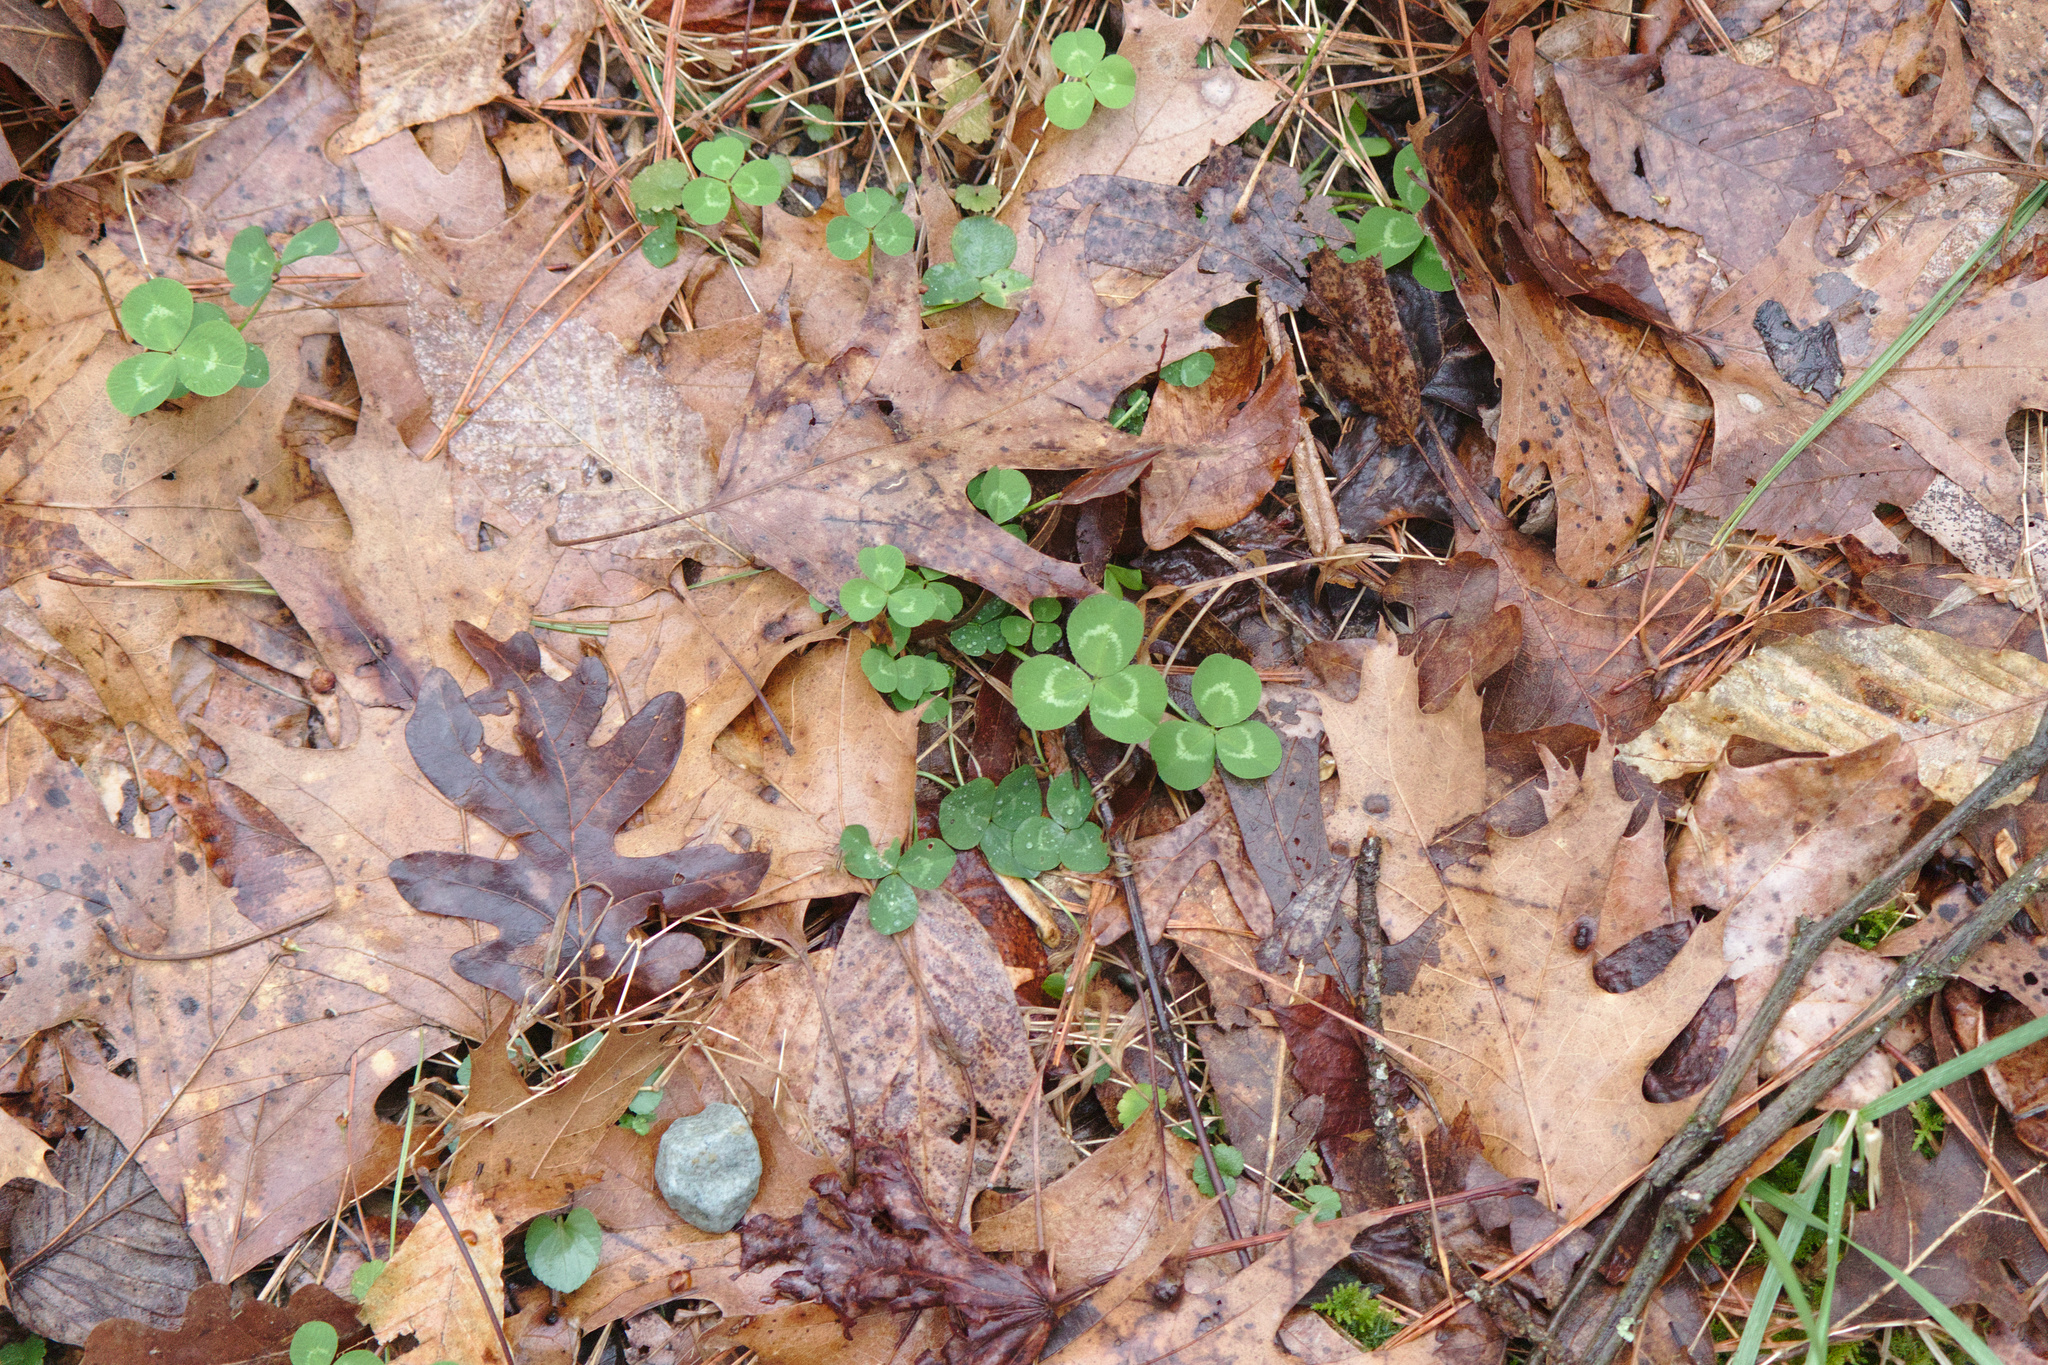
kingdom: Plantae
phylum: Tracheophyta
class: Magnoliopsida
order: Fabales
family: Fabaceae
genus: Trifolium
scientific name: Trifolium repens
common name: White clover
